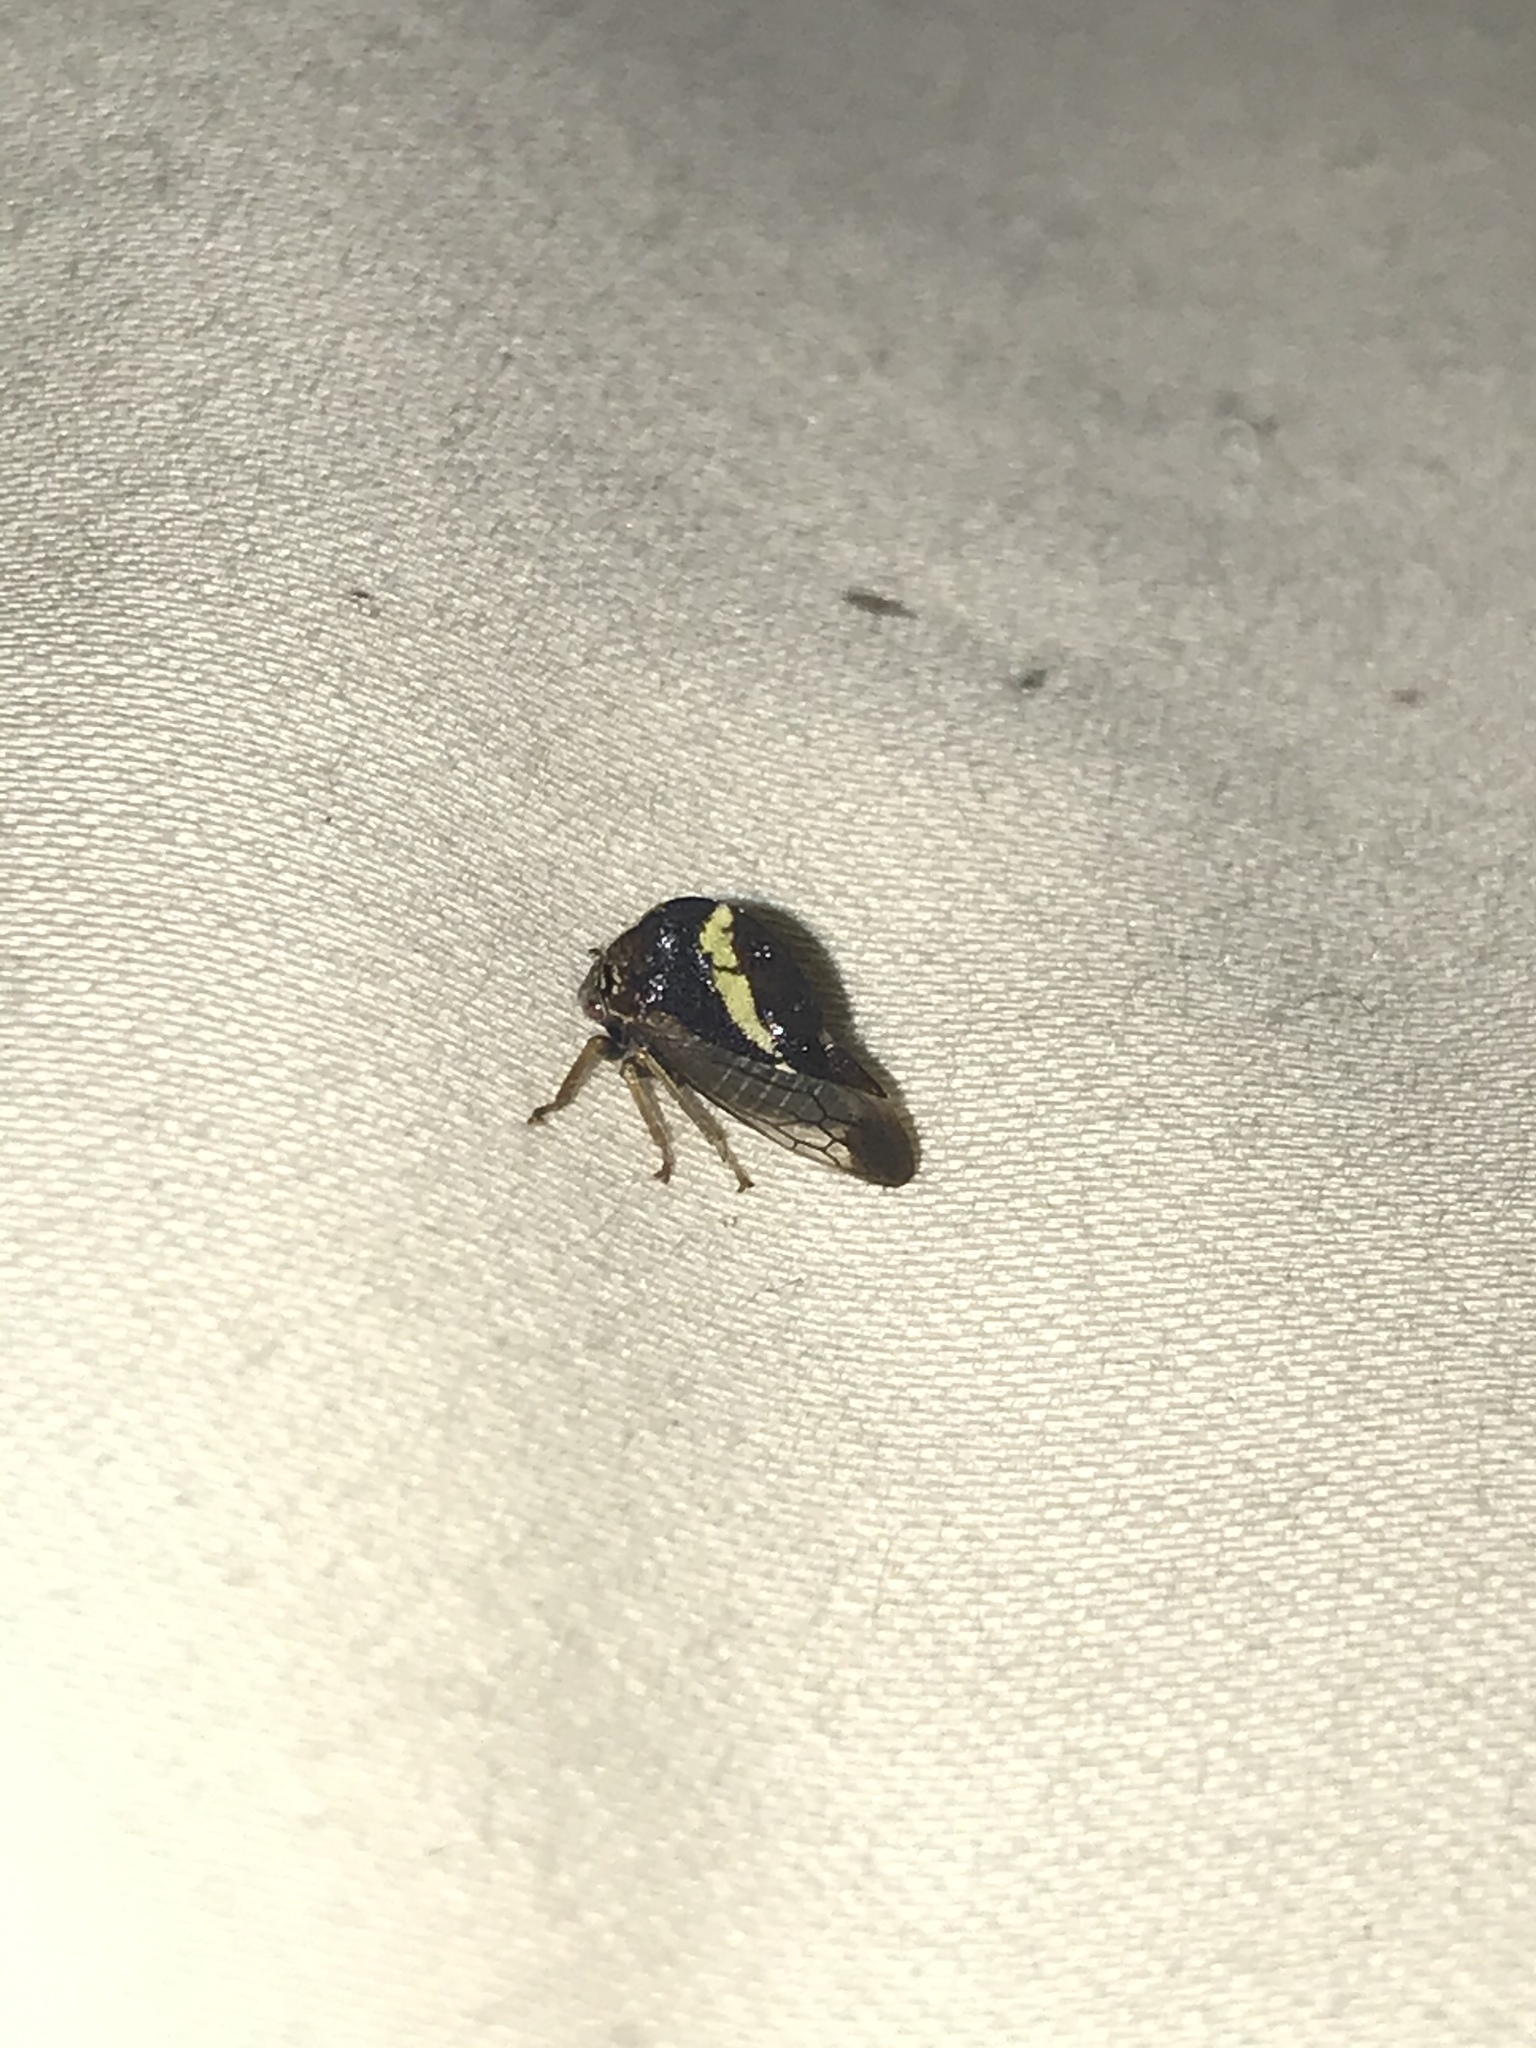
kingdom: Animalia
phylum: Arthropoda
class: Insecta
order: Hemiptera
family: Membracidae
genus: Smilia
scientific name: Smilia fasciata
